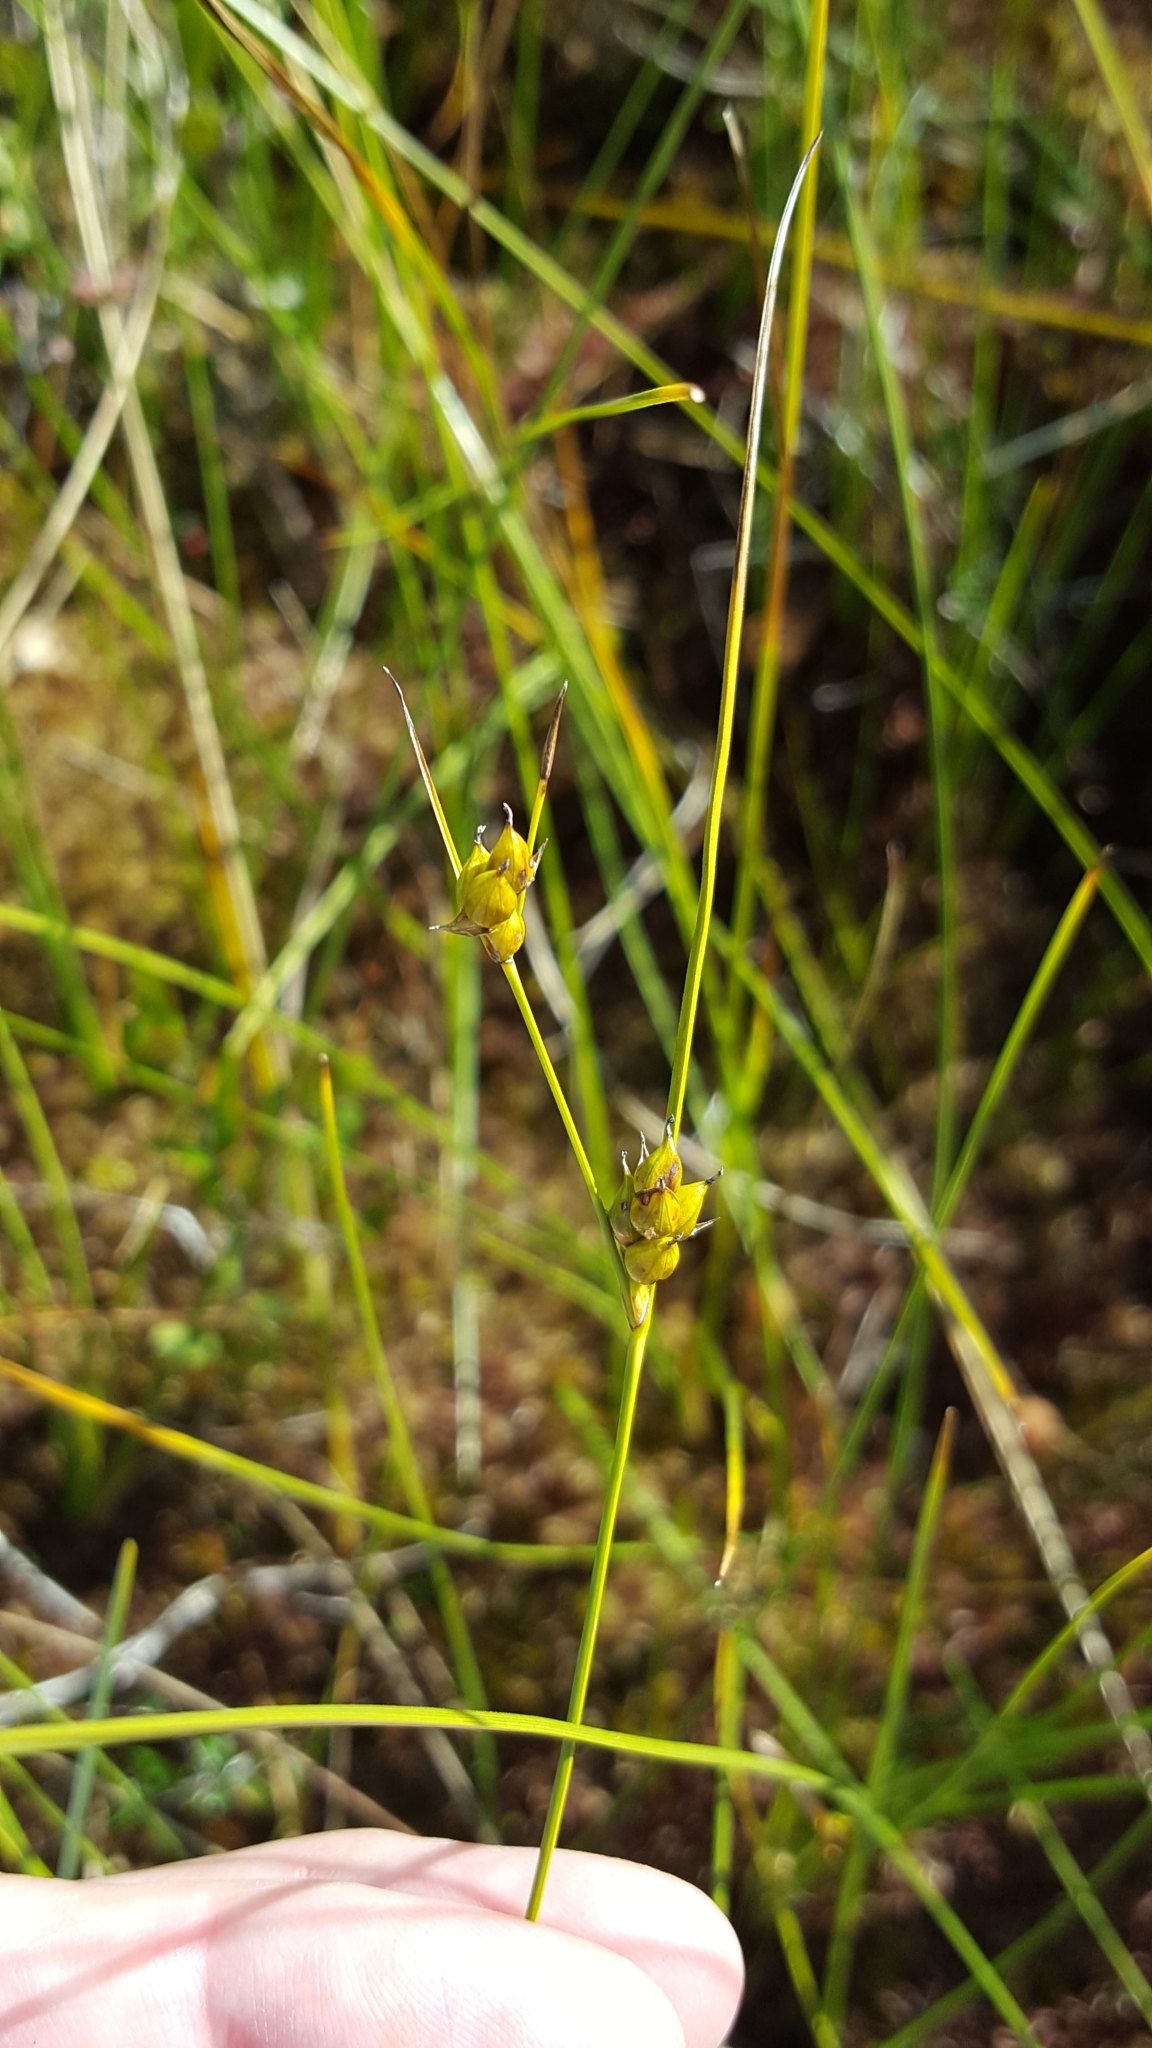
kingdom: Plantae
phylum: Tracheophyta
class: Liliopsida
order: Poales
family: Cyperaceae
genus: Carex
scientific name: Carex oligosperma
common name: Few-seed sedge
